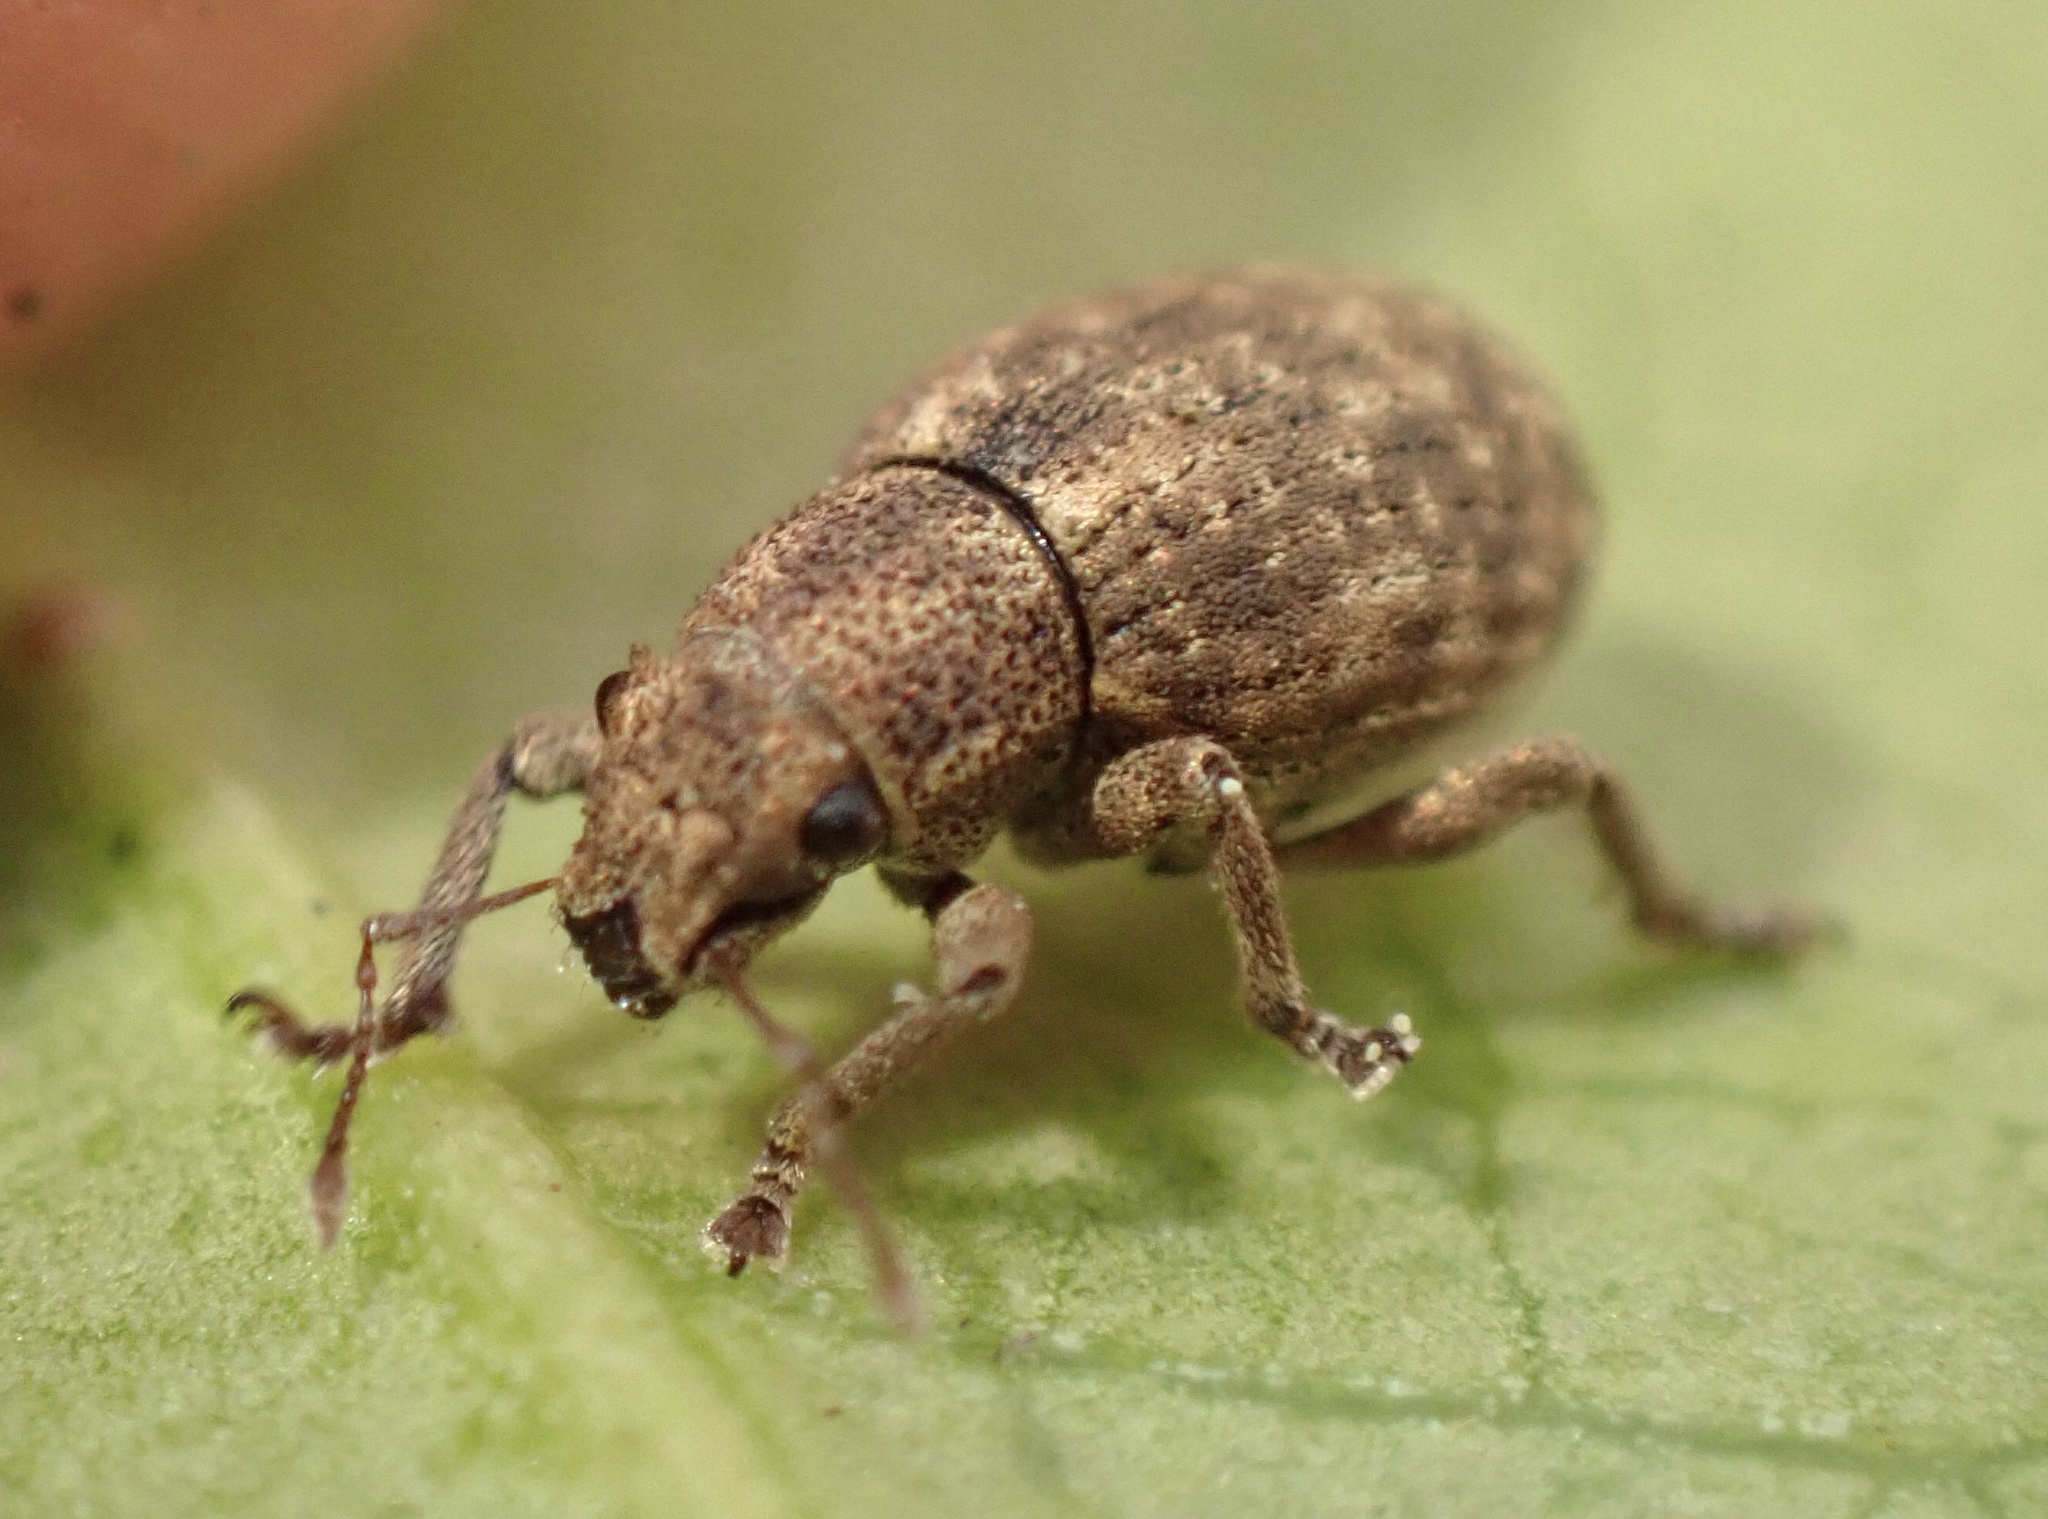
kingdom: Animalia
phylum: Arthropoda
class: Insecta
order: Coleoptera
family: Curculionidae
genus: Strophosoma
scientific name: Strophosoma capitatum
